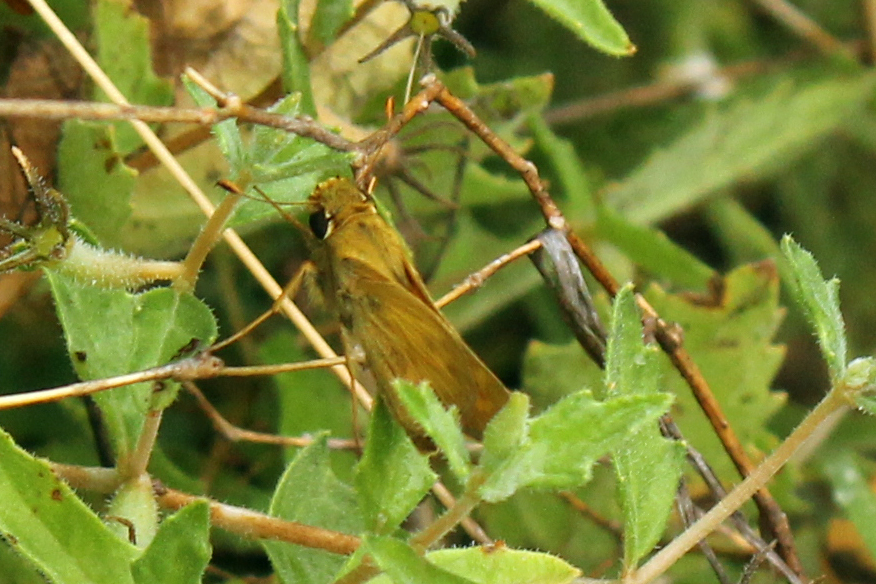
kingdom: Animalia
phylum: Arthropoda
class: Insecta
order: Lepidoptera
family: Hesperiidae
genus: Atalopedes
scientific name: Atalopedes
